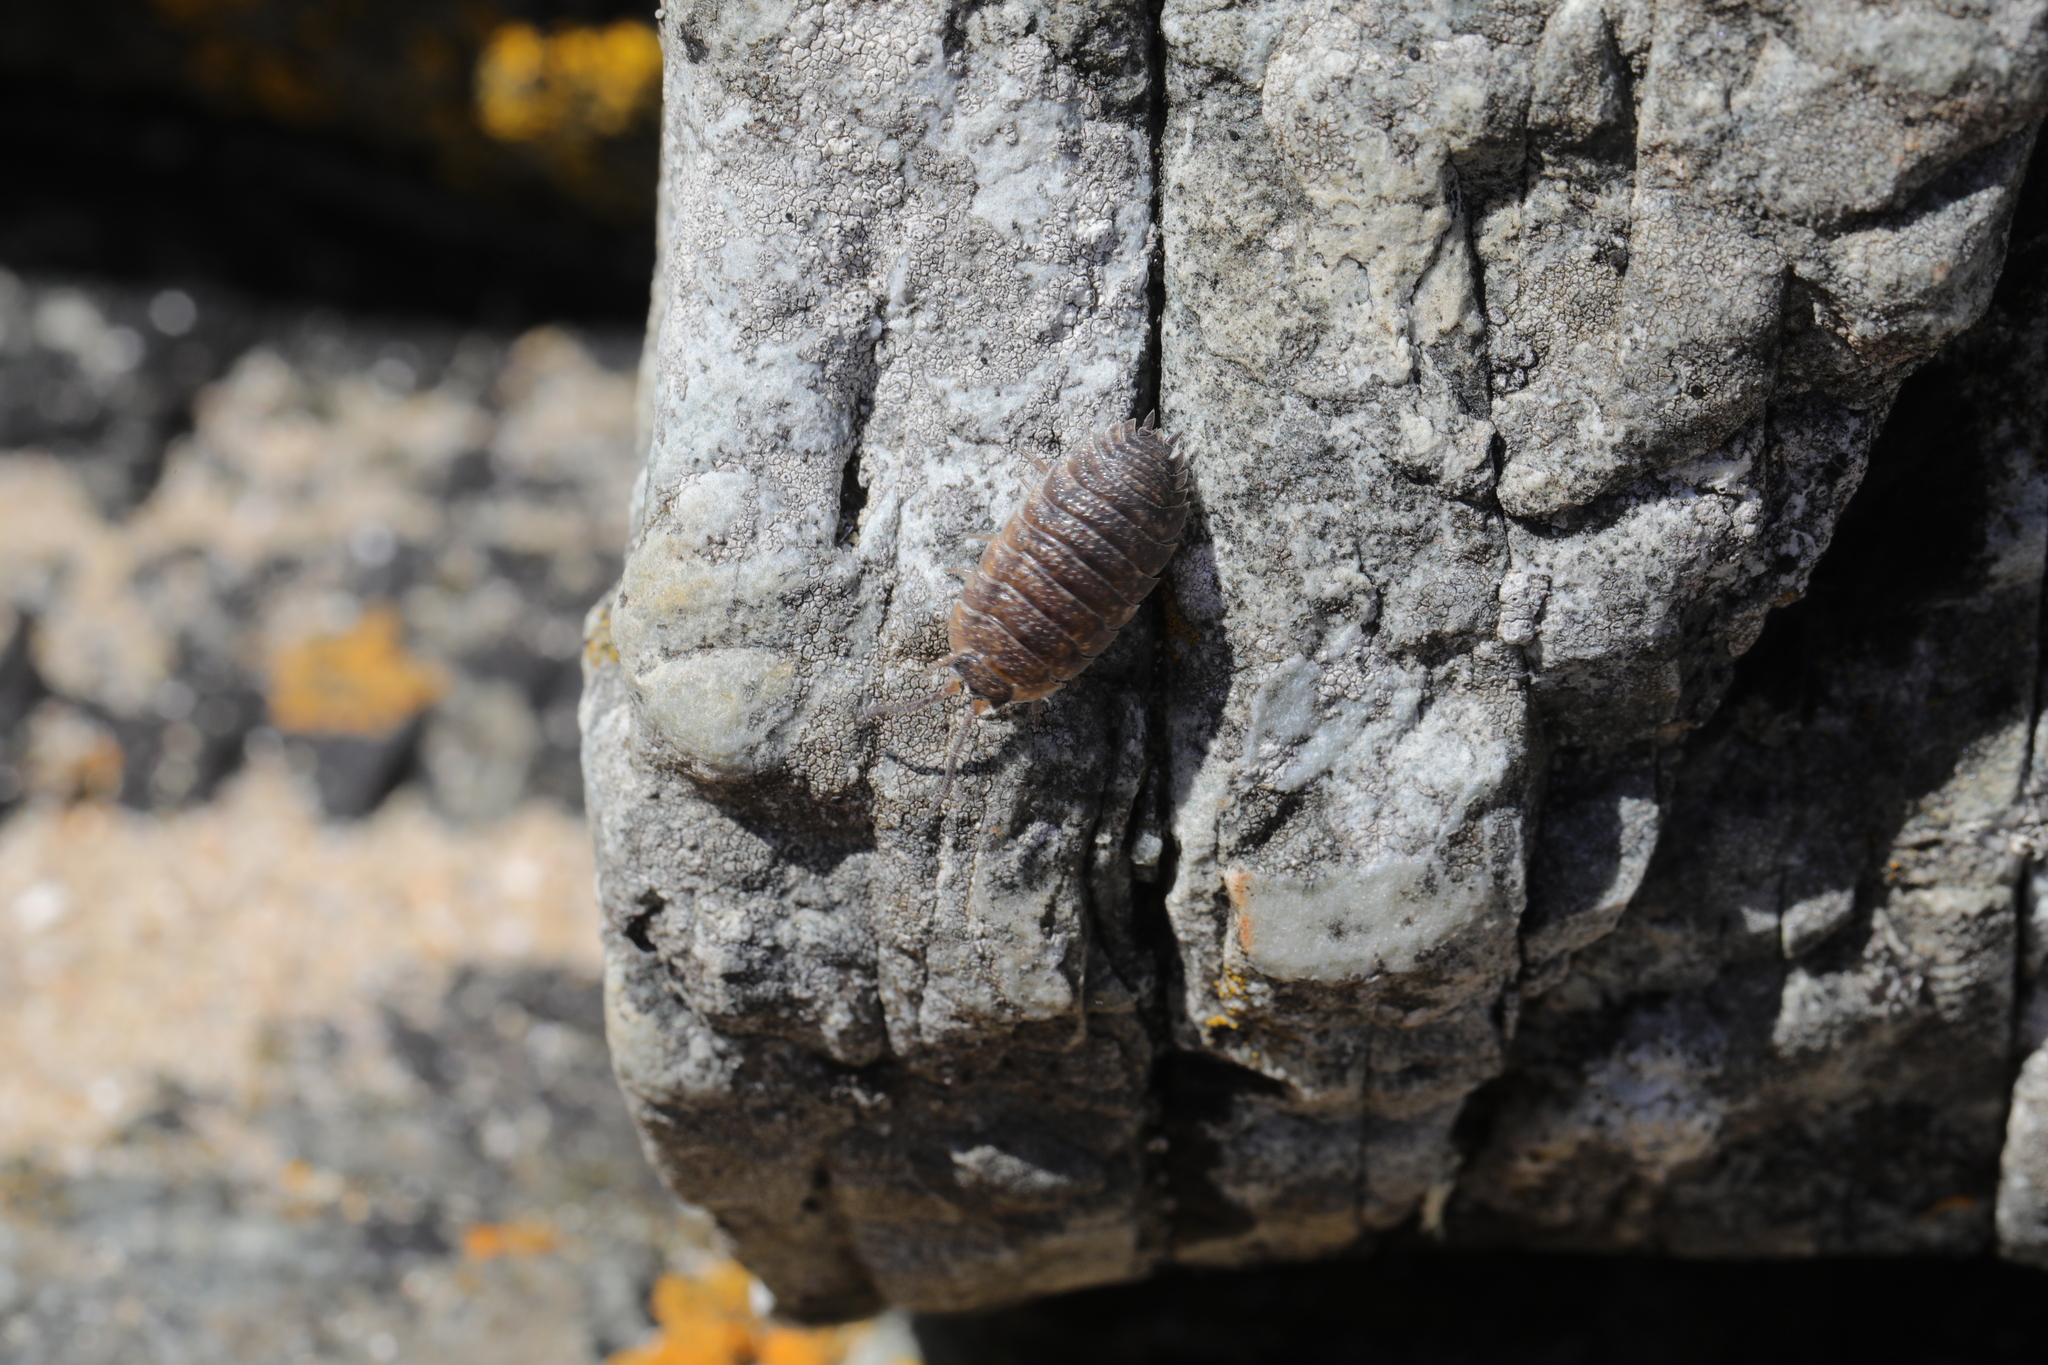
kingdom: Animalia
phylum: Arthropoda
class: Malacostraca
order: Isopoda
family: Porcellionidae
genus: Porcellio
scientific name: Porcellio scaber
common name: Common rough woodlouse
